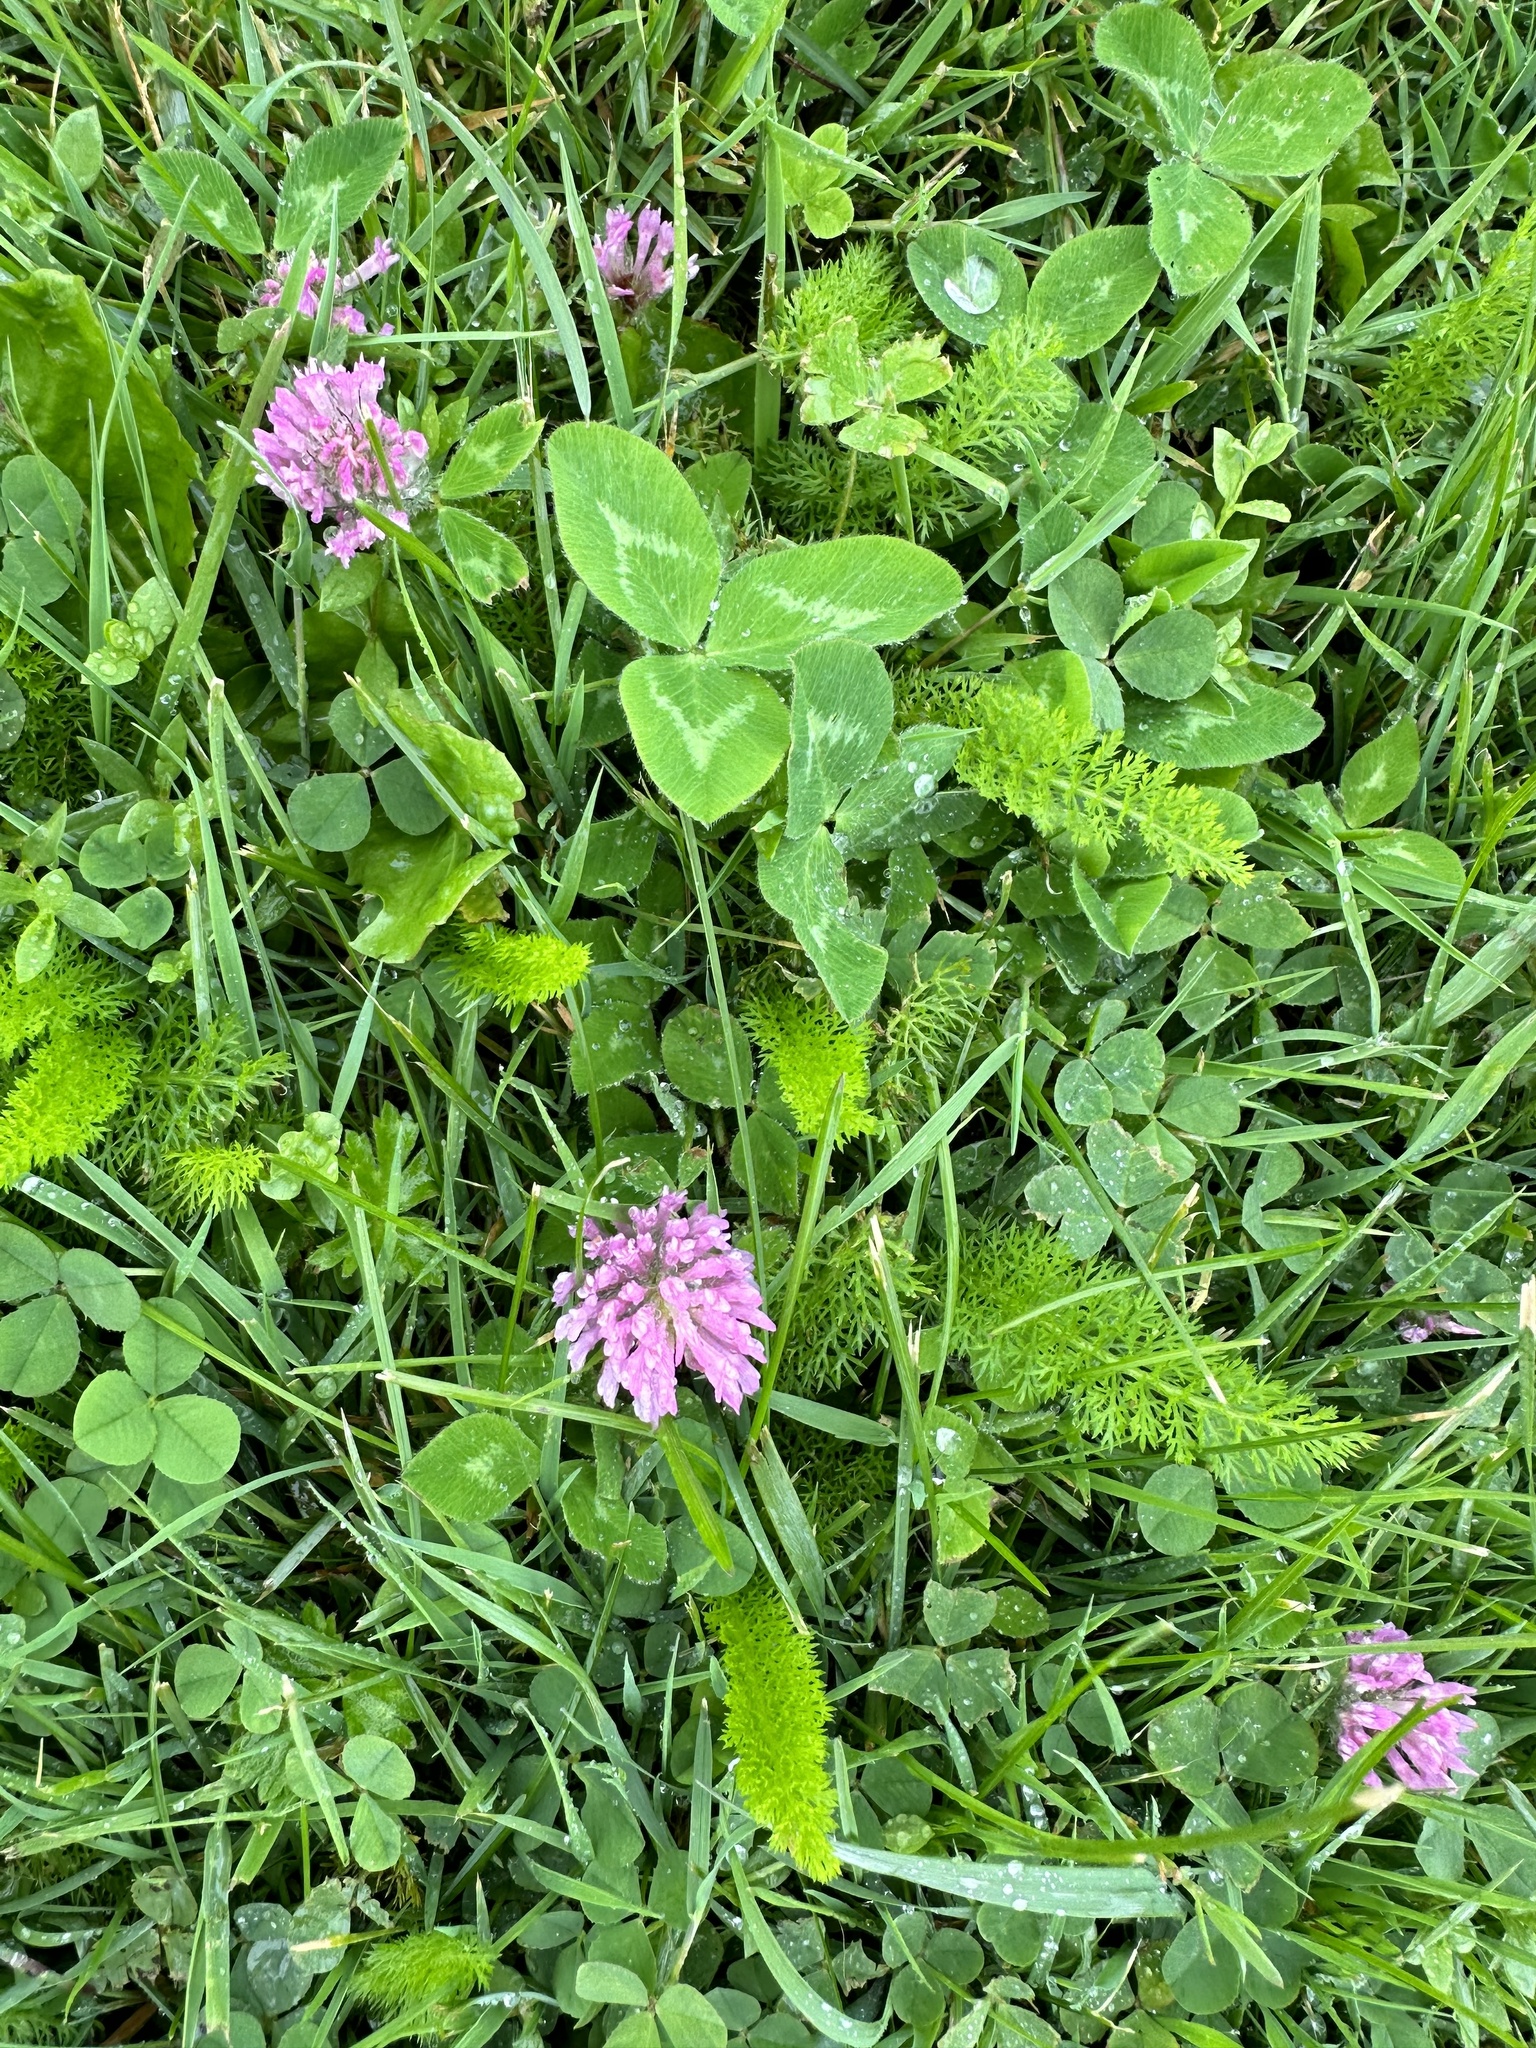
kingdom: Plantae
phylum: Tracheophyta
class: Magnoliopsida
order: Fabales
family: Fabaceae
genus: Trifolium
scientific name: Trifolium pratense
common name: Red clover
